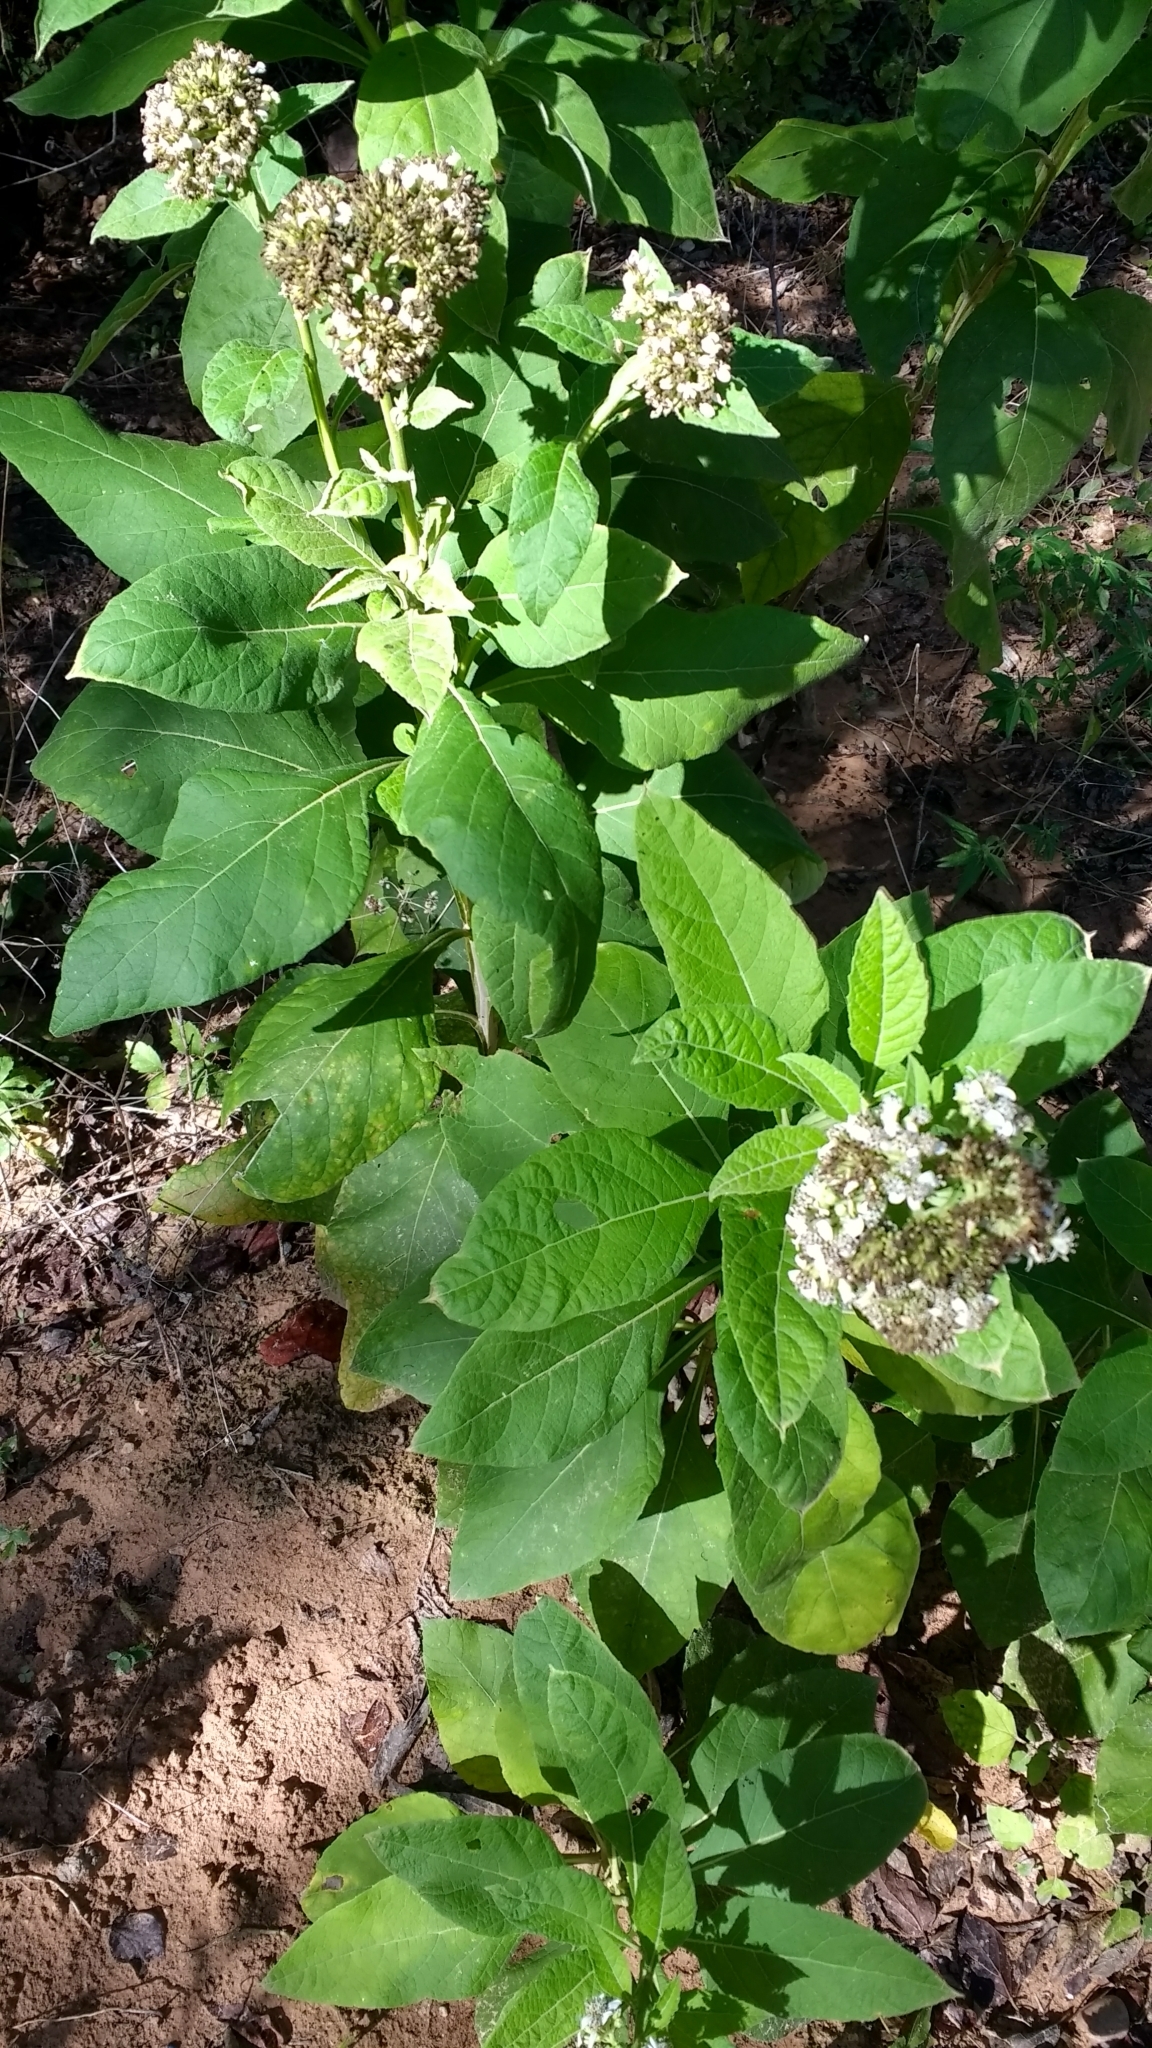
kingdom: Plantae
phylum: Tracheophyta
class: Magnoliopsida
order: Asterales
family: Asteraceae
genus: Verbesina
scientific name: Verbesina virginica
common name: Frostweed
